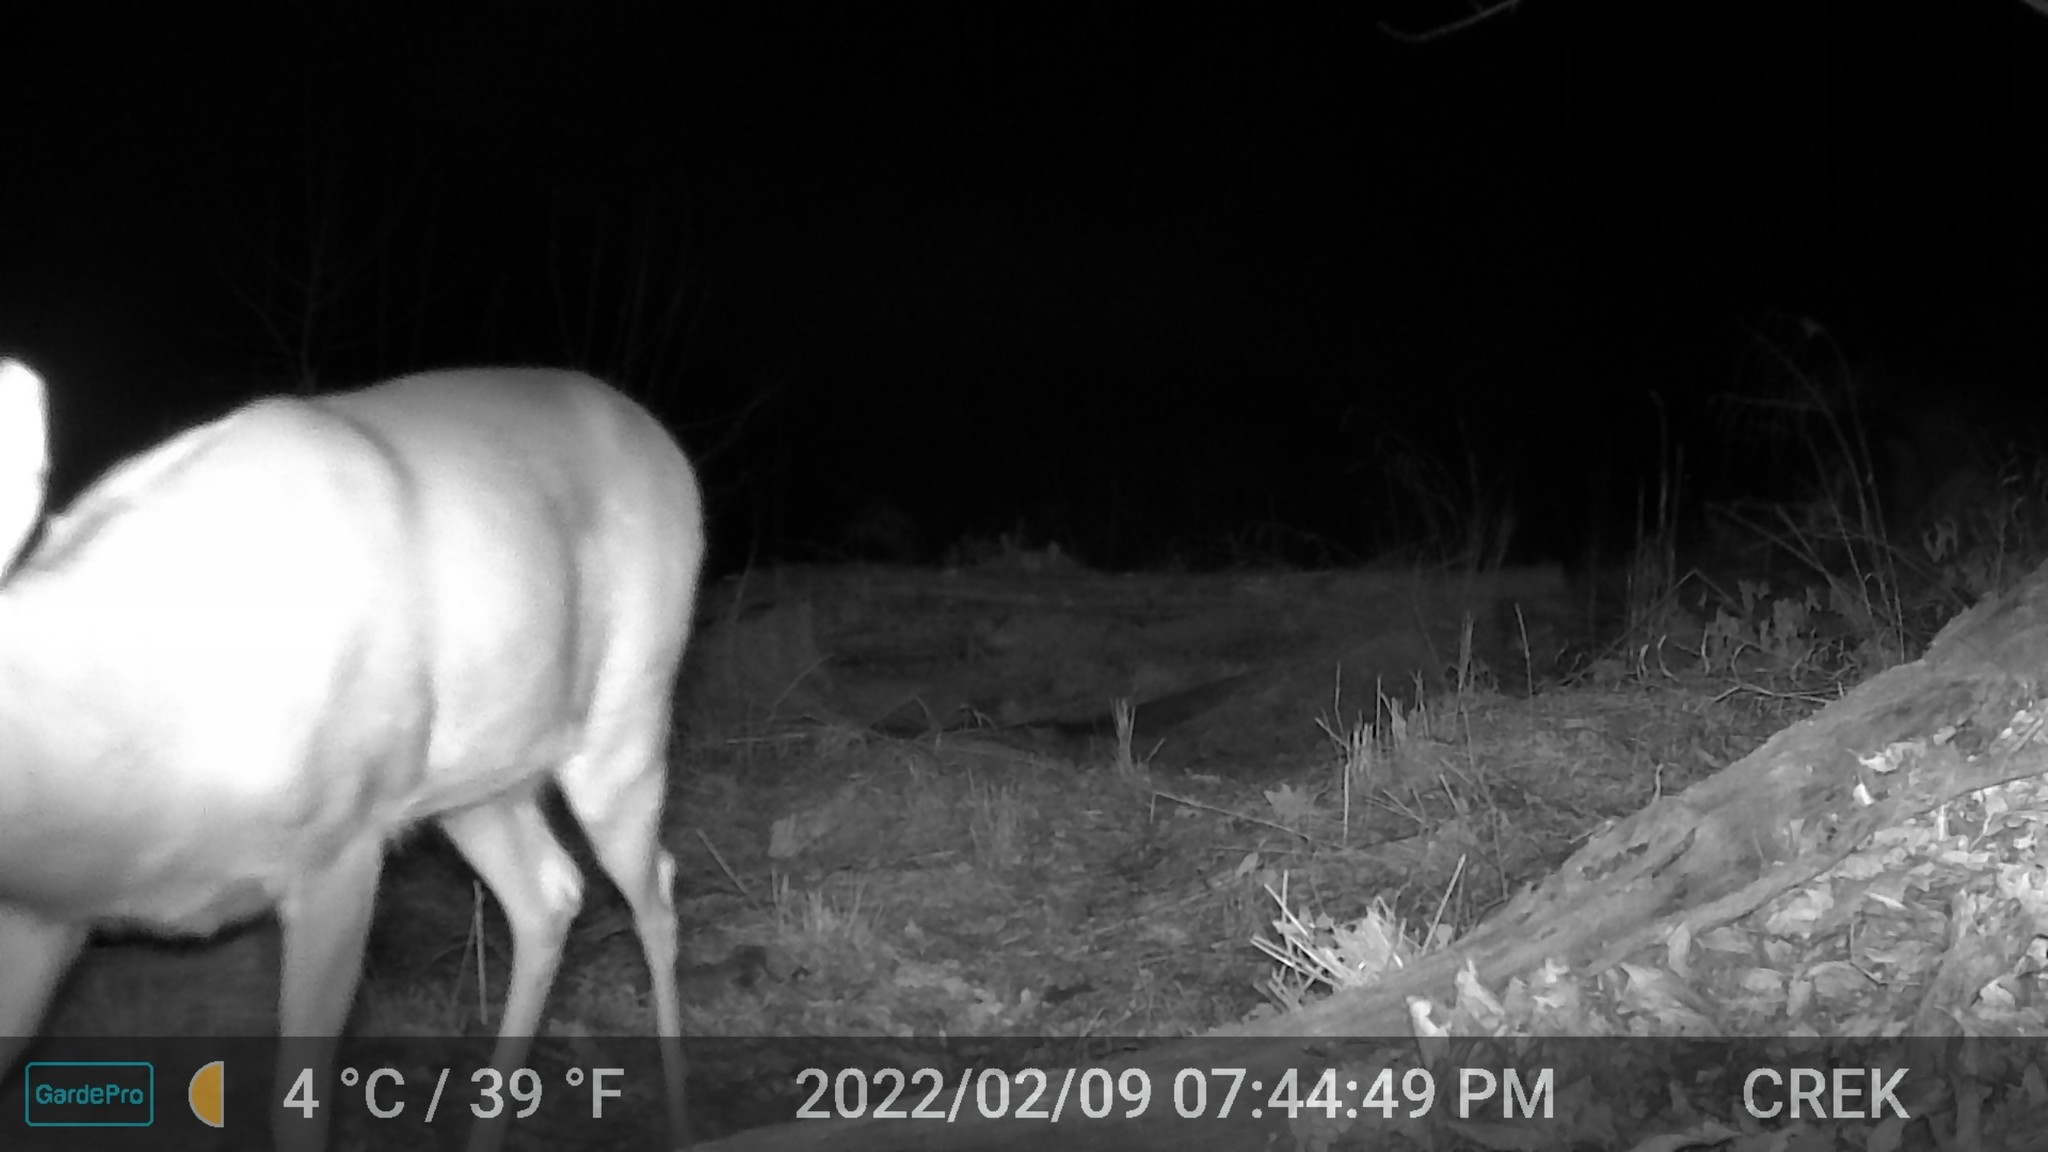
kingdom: Animalia
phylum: Chordata
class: Mammalia
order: Artiodactyla
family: Cervidae
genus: Odocoileus
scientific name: Odocoileus virginianus
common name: White-tailed deer
